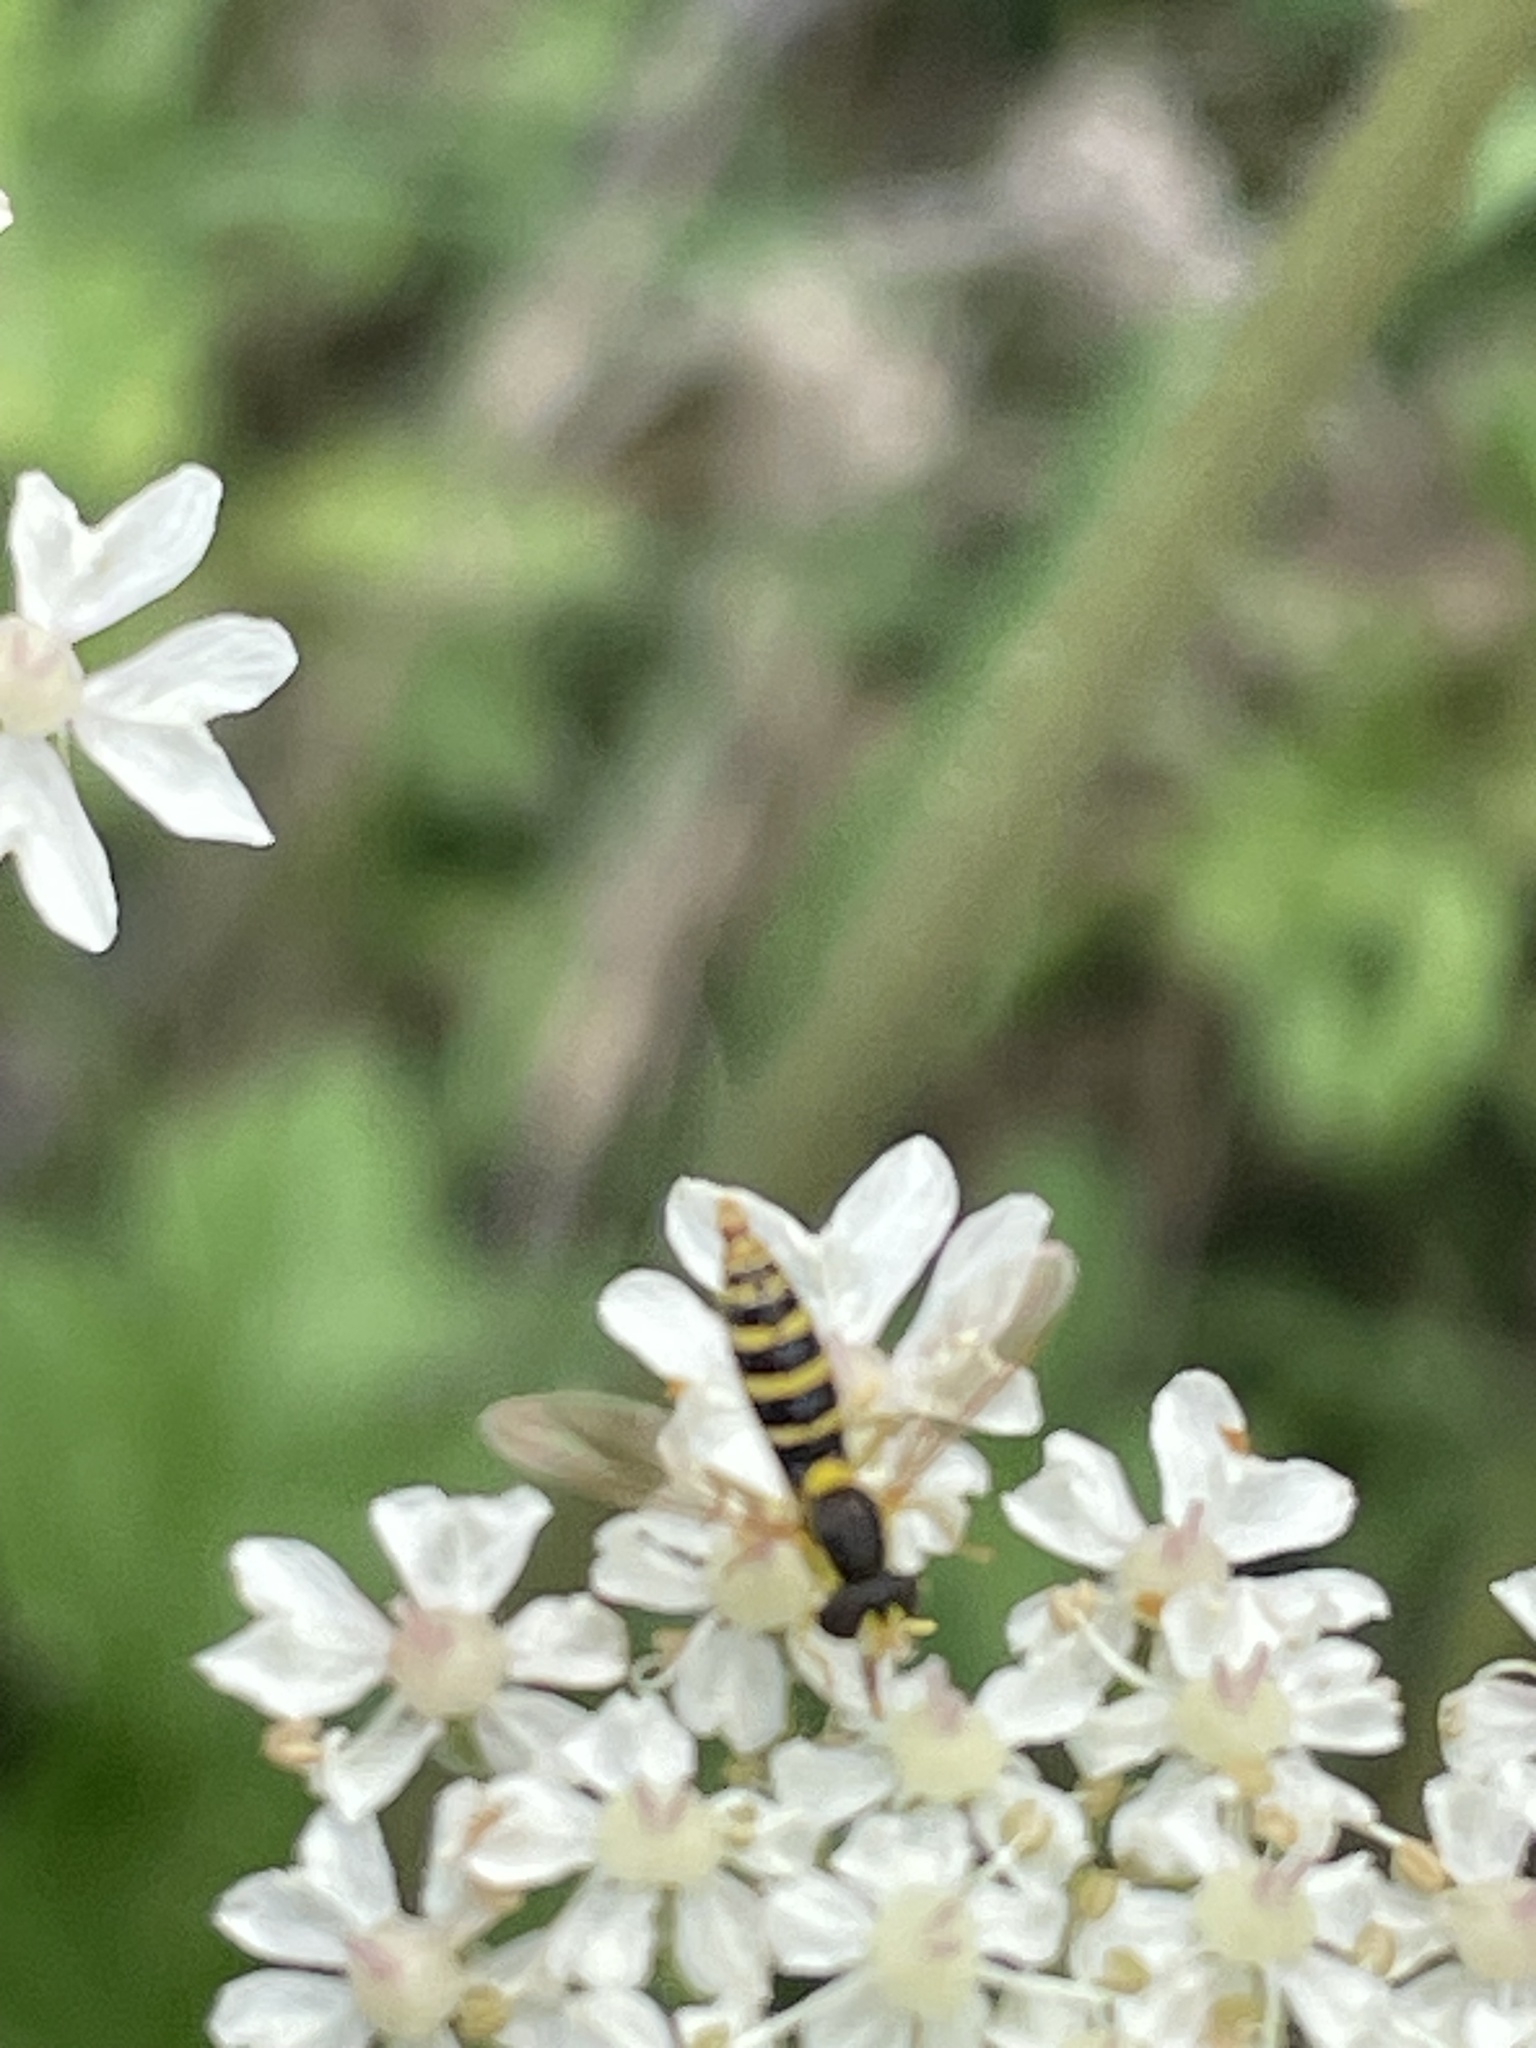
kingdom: Animalia
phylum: Arthropoda
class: Insecta
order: Diptera
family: Syrphidae
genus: Sphaerophoria
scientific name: Sphaerophoria
